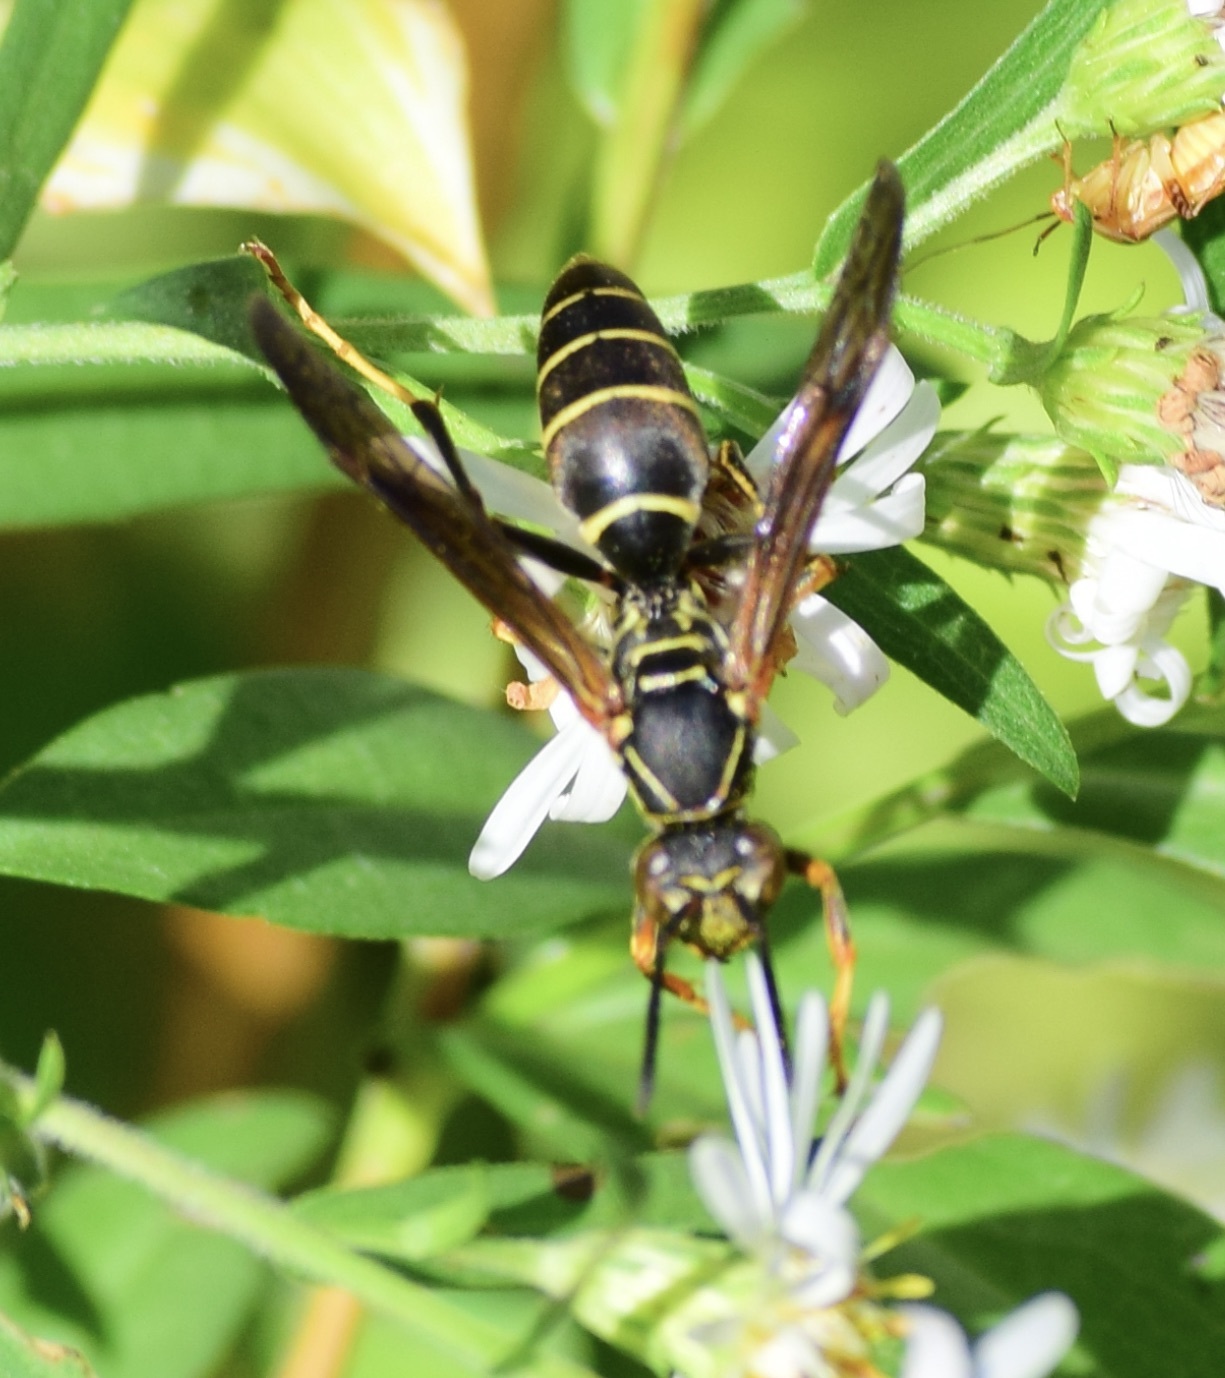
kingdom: Animalia
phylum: Arthropoda
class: Insecta
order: Hymenoptera
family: Eumenidae
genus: Polistes
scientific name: Polistes fuscatus
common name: Dark paper wasp
